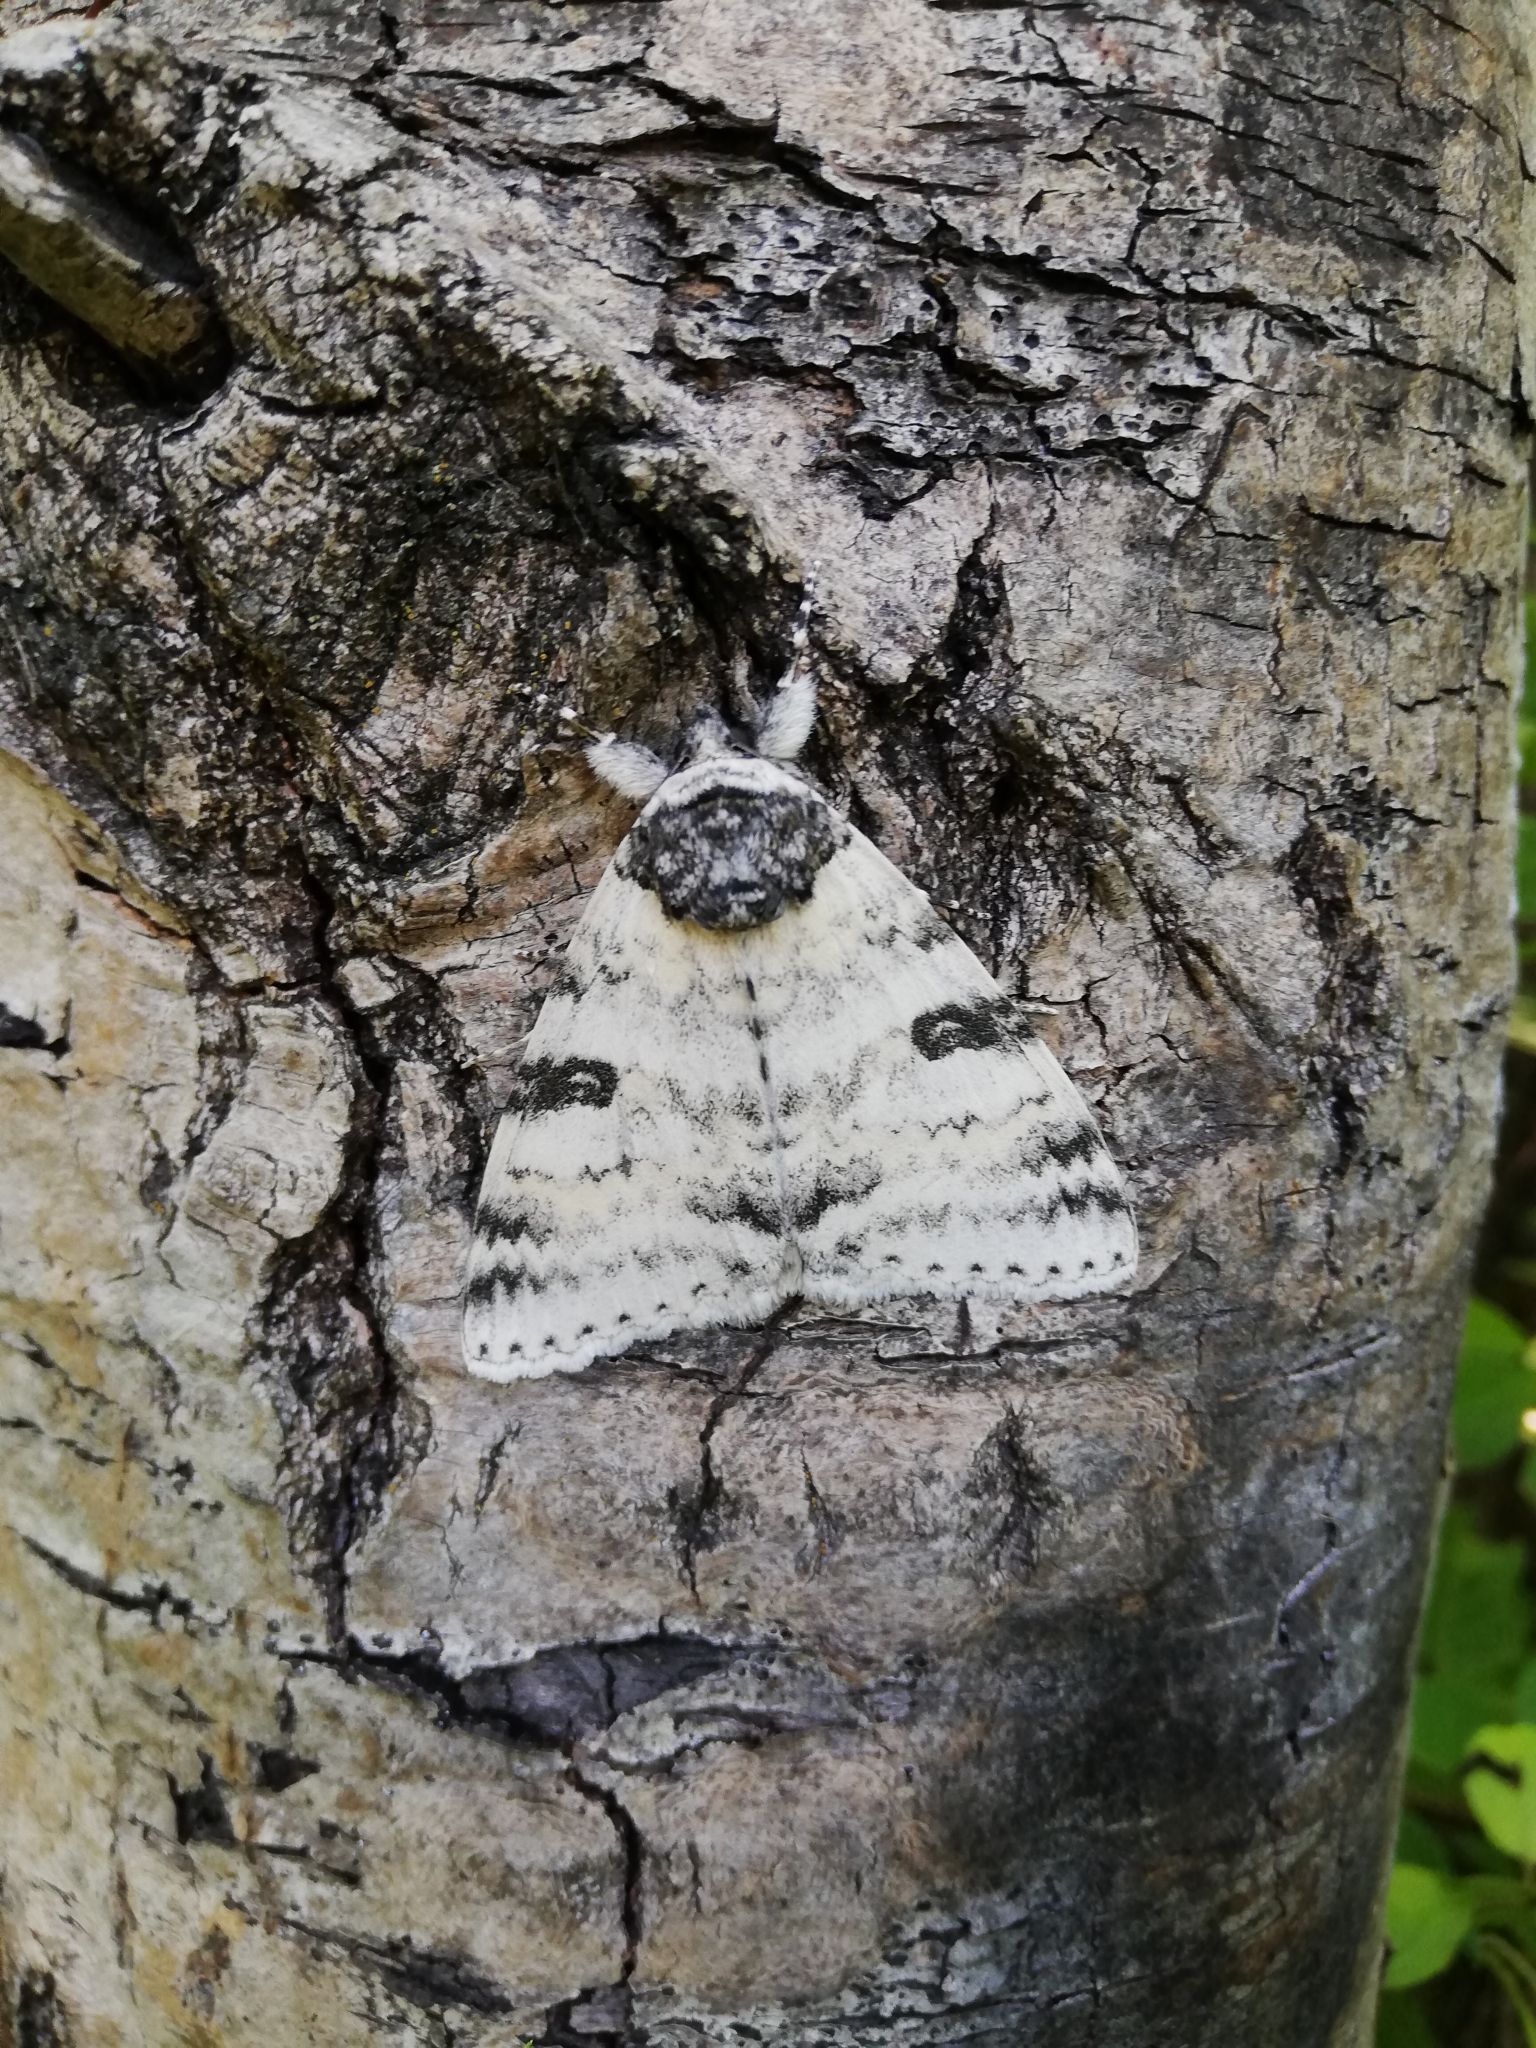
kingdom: Animalia
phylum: Arthropoda
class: Insecta
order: Lepidoptera
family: Erebidae
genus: Catocala
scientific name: Catocala relicta
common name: White underwing
